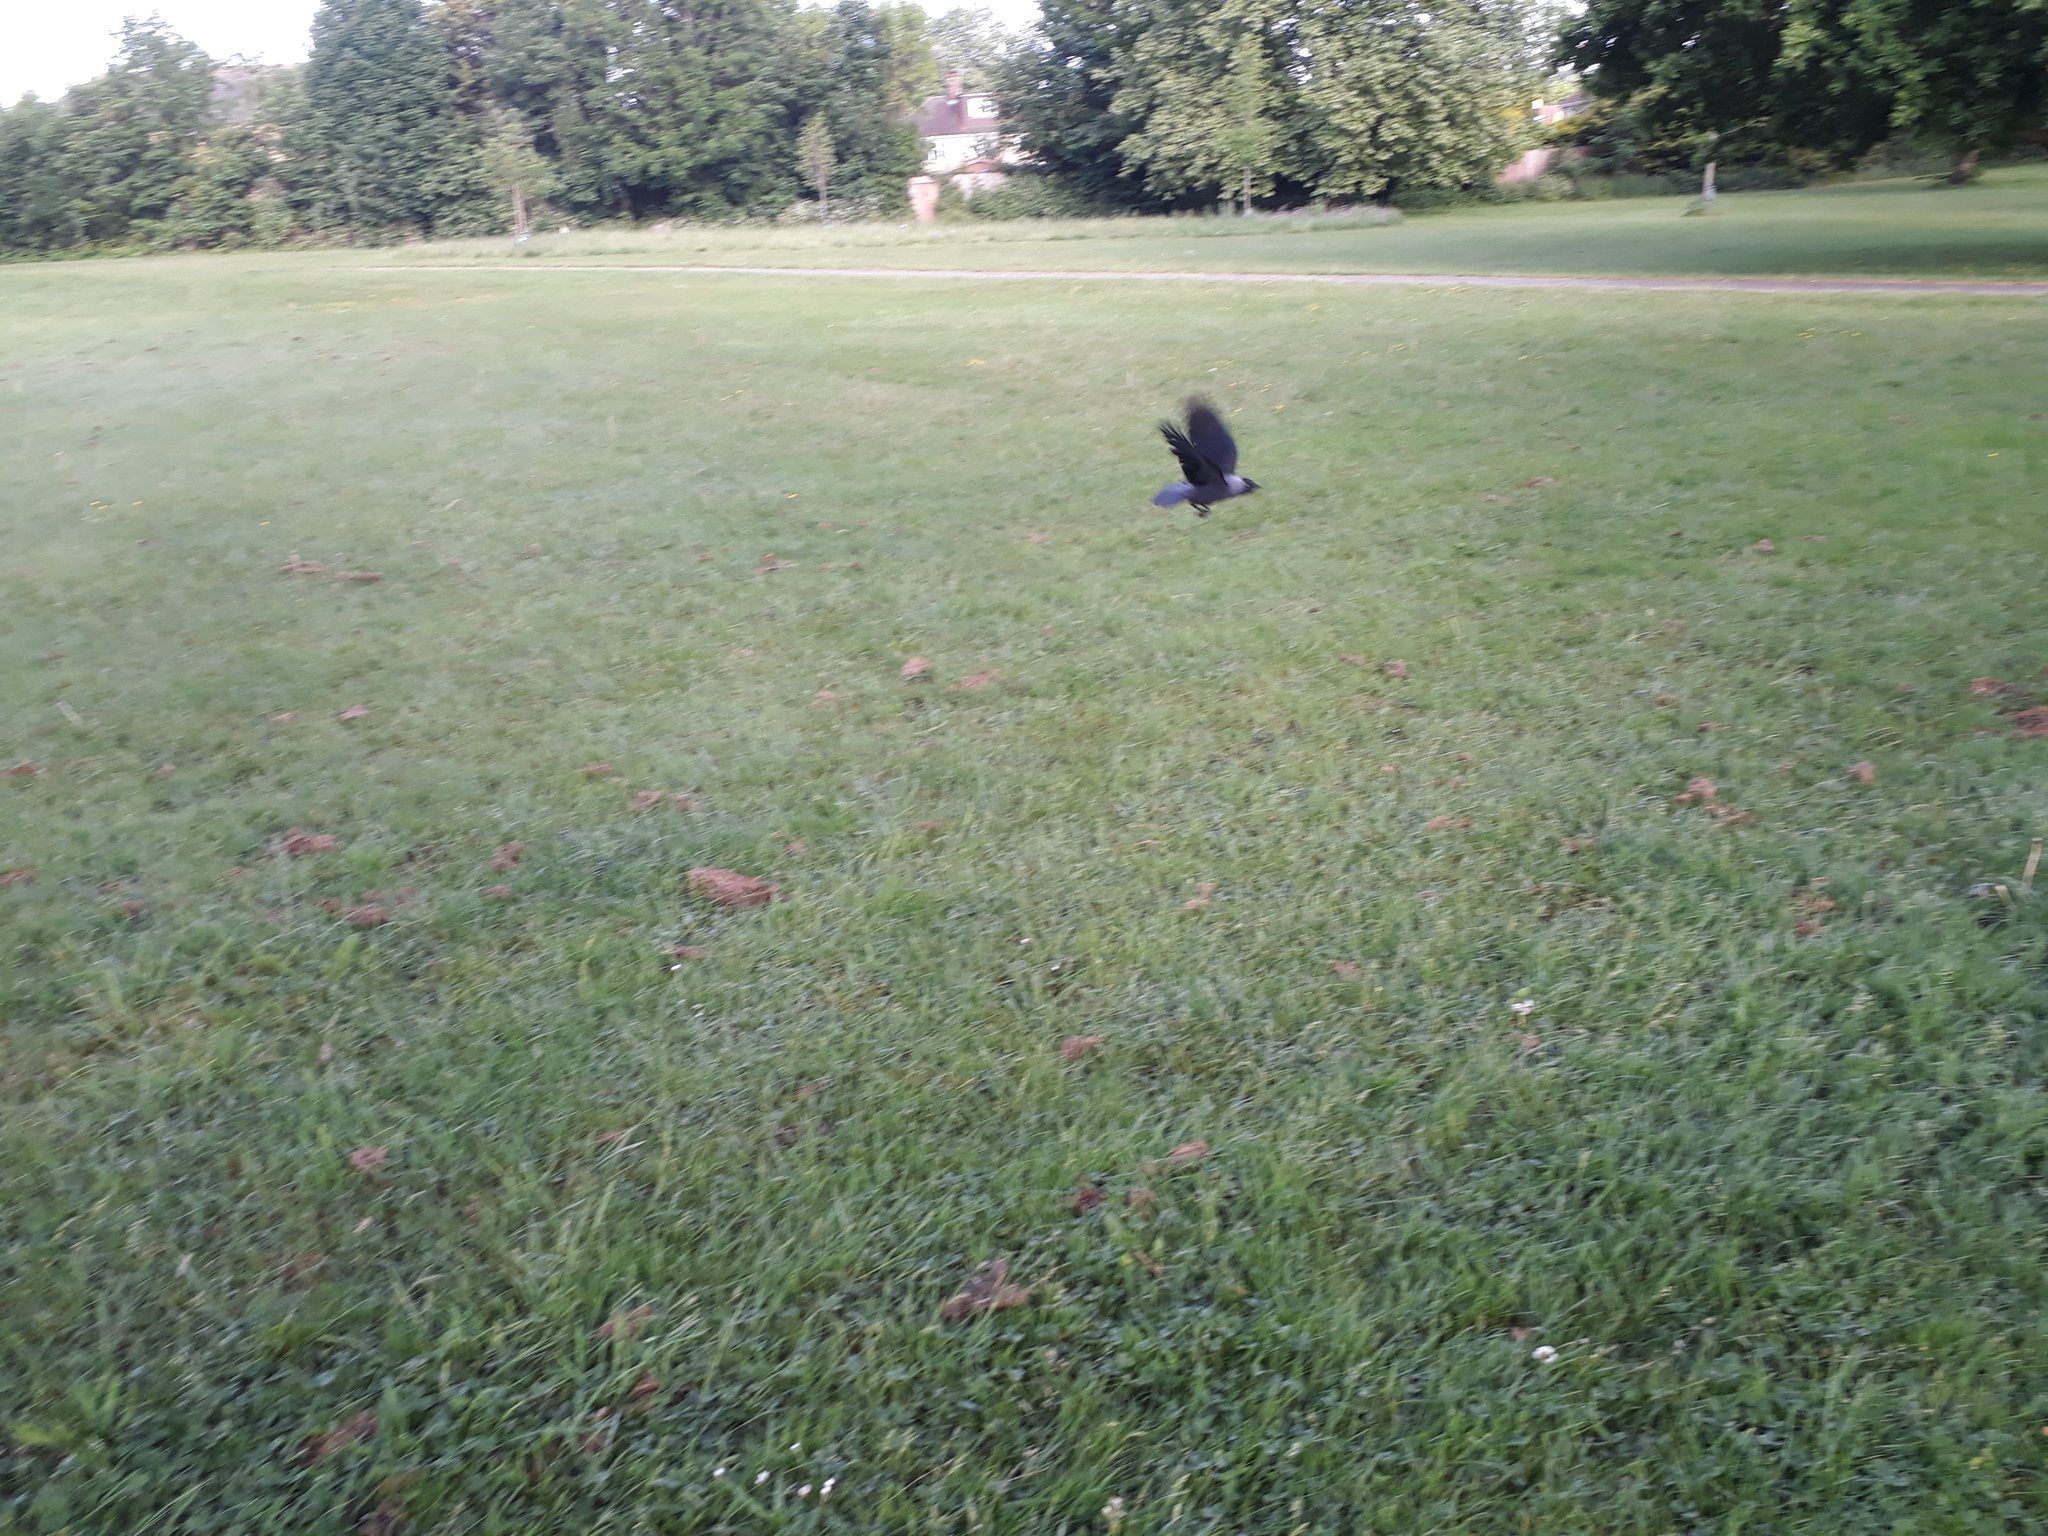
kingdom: Animalia
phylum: Chordata
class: Aves
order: Passeriformes
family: Corvidae
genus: Coloeus
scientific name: Coloeus monedula
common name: Western jackdaw
